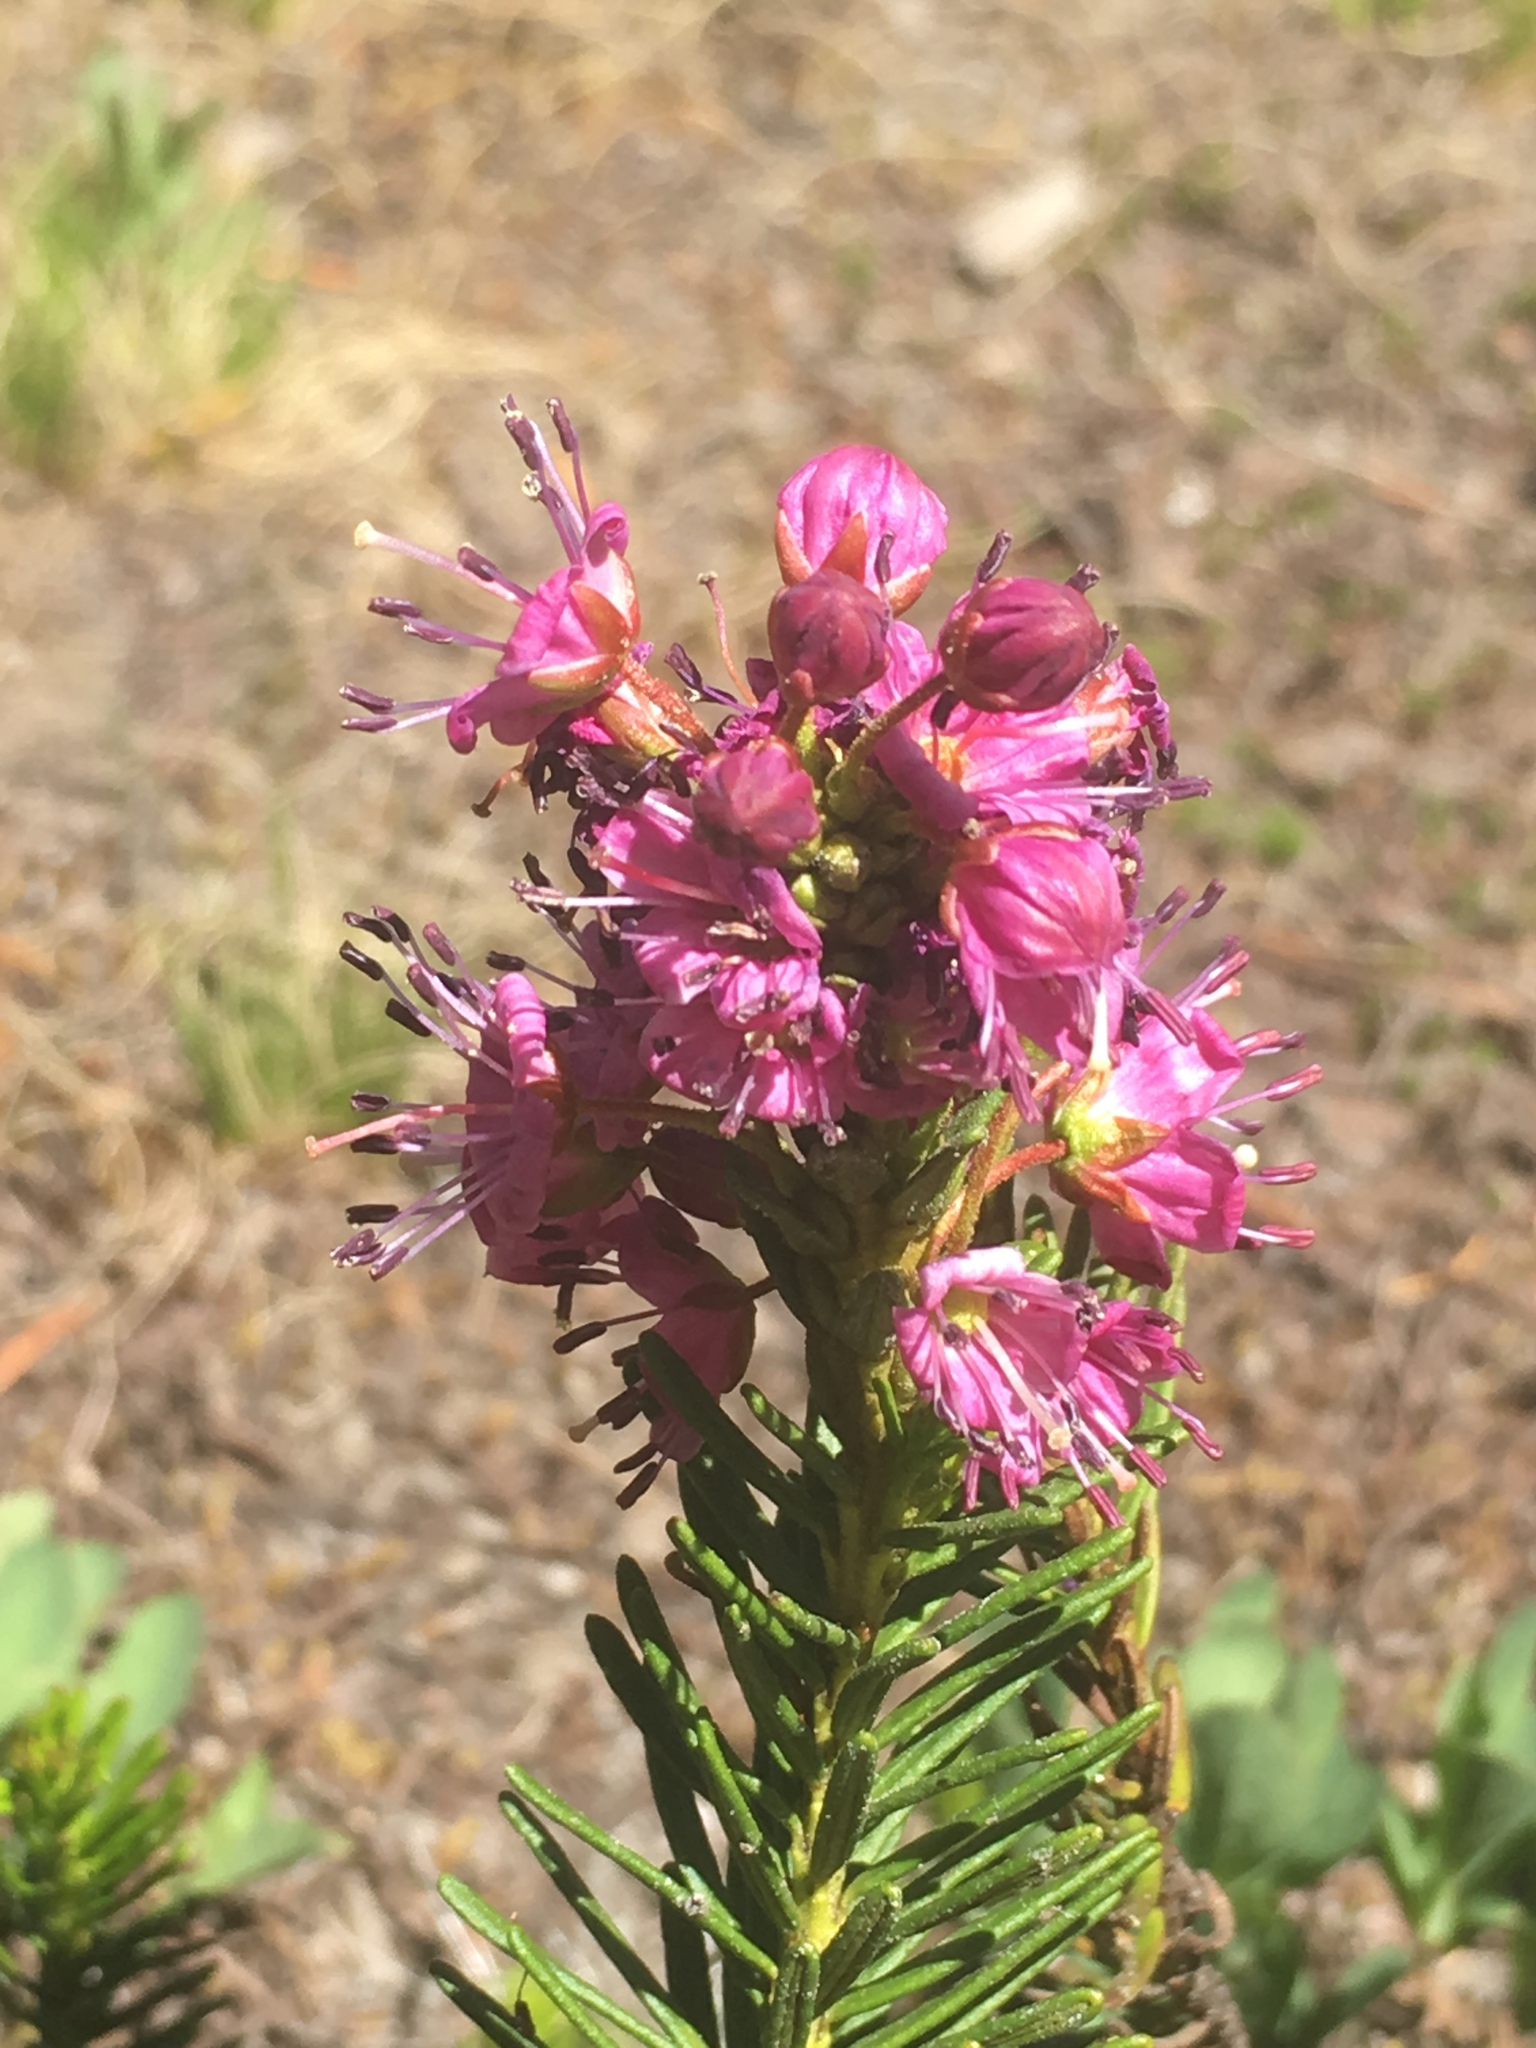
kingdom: Plantae
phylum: Tracheophyta
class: Magnoliopsida
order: Ericales
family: Ericaceae
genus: Phyllodoce
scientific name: Phyllodoce breweri
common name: Brewer's mountain-heather
